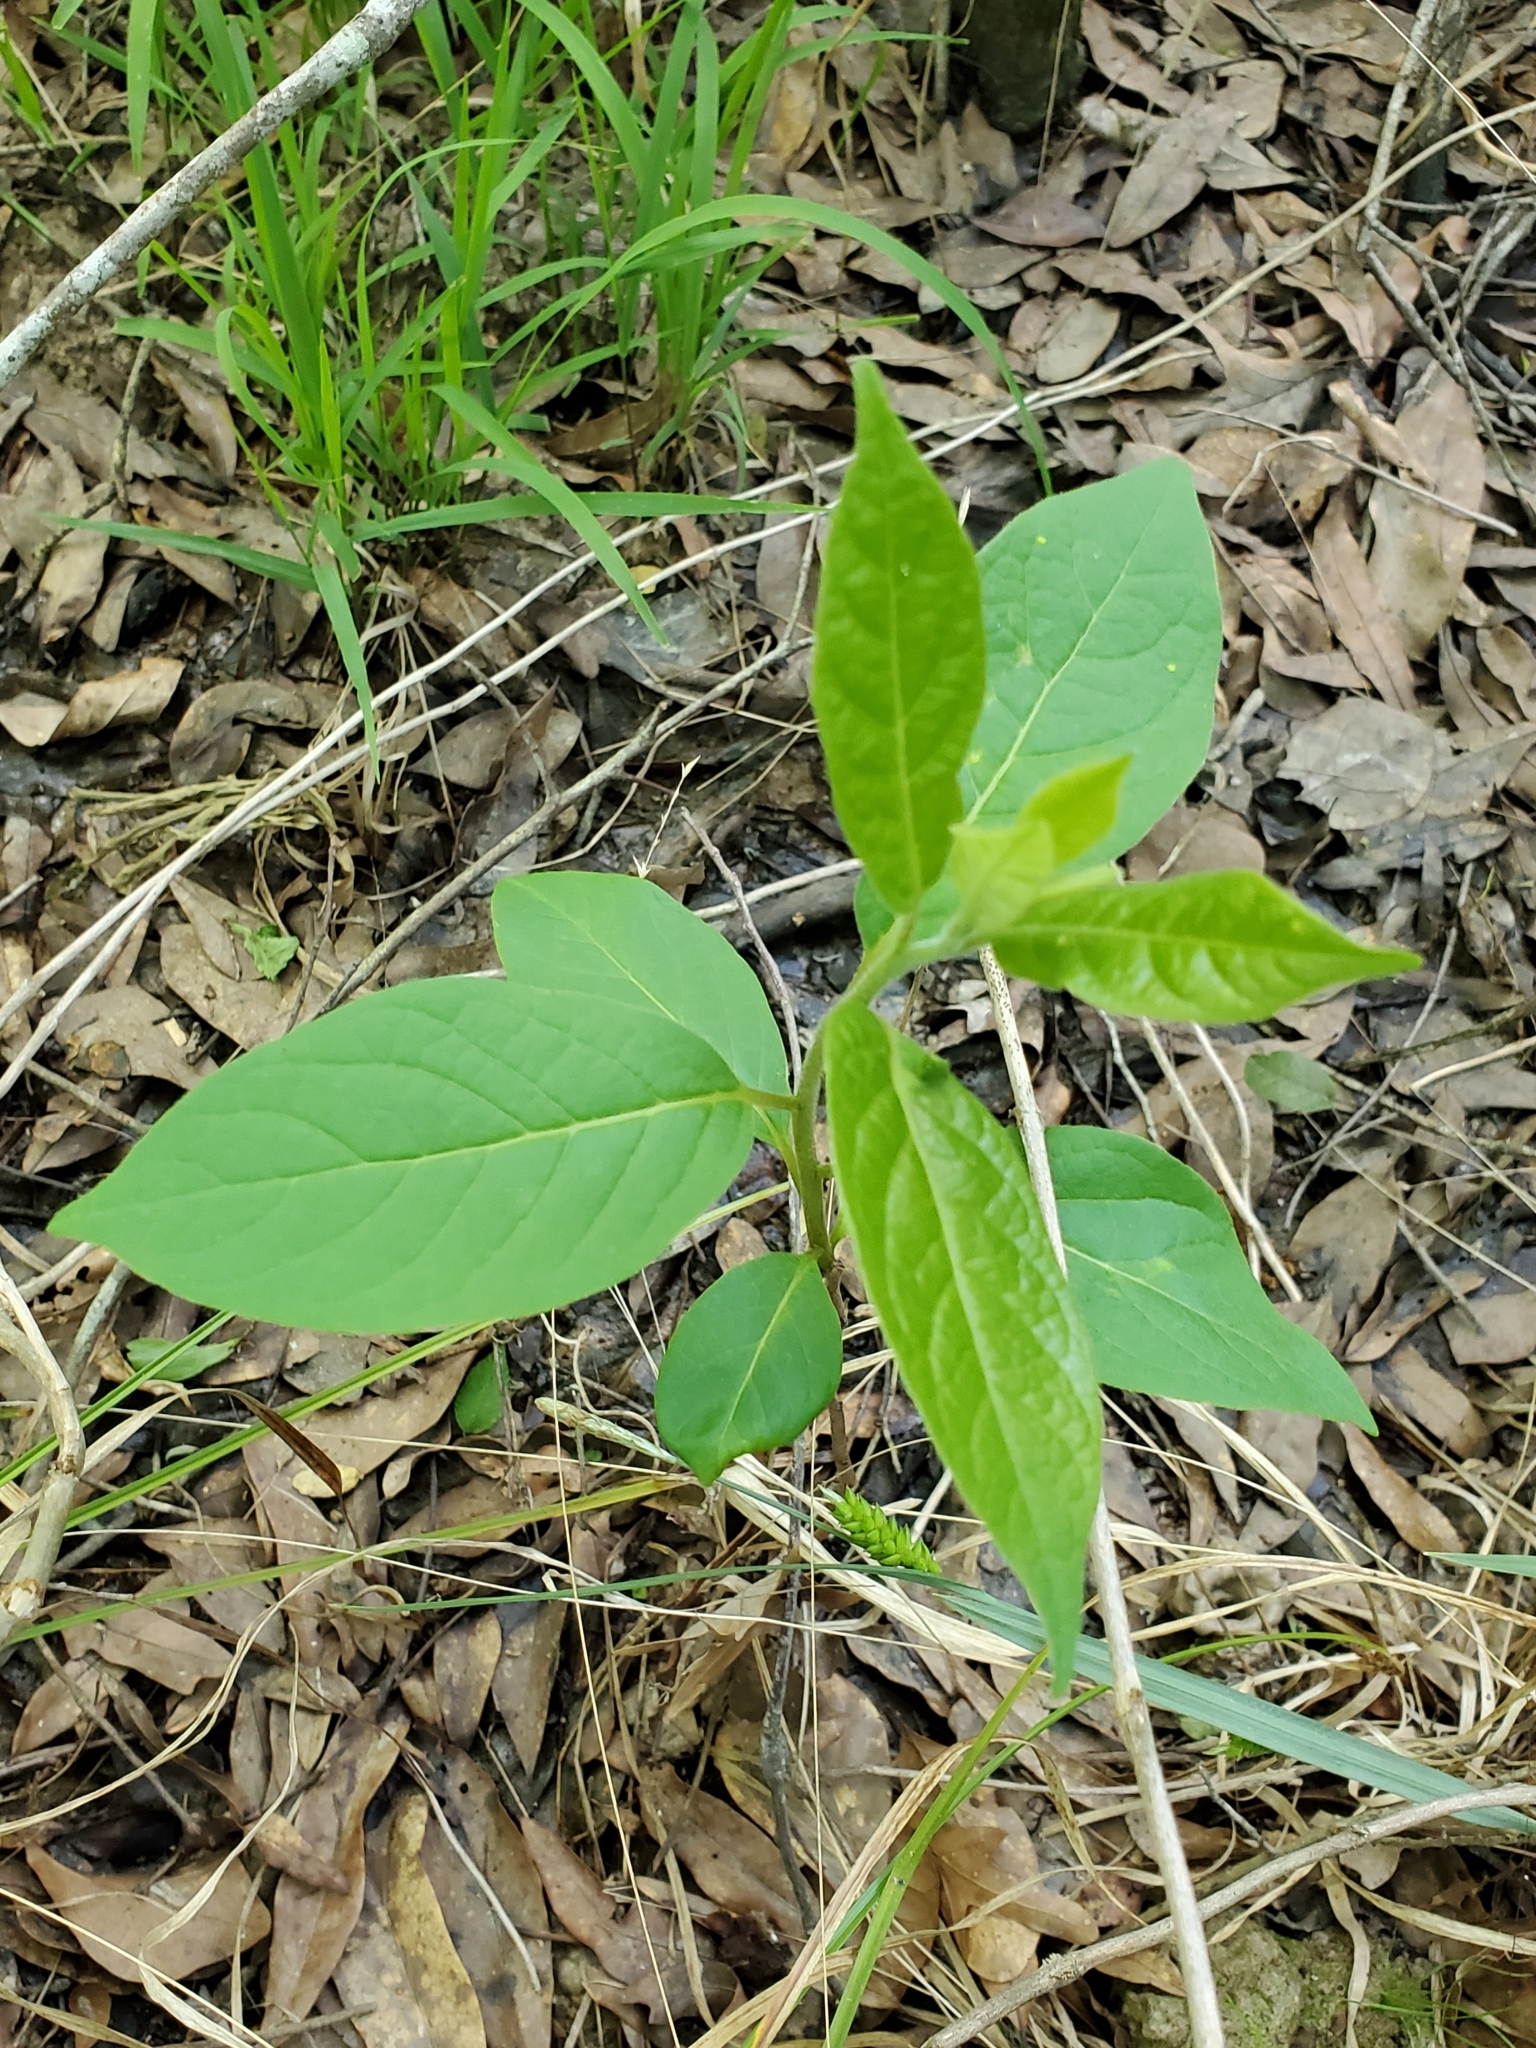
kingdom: Plantae
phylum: Tracheophyta
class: Magnoliopsida
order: Ericales
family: Ebenaceae
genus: Diospyros
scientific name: Diospyros virginiana
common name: Persimmon
